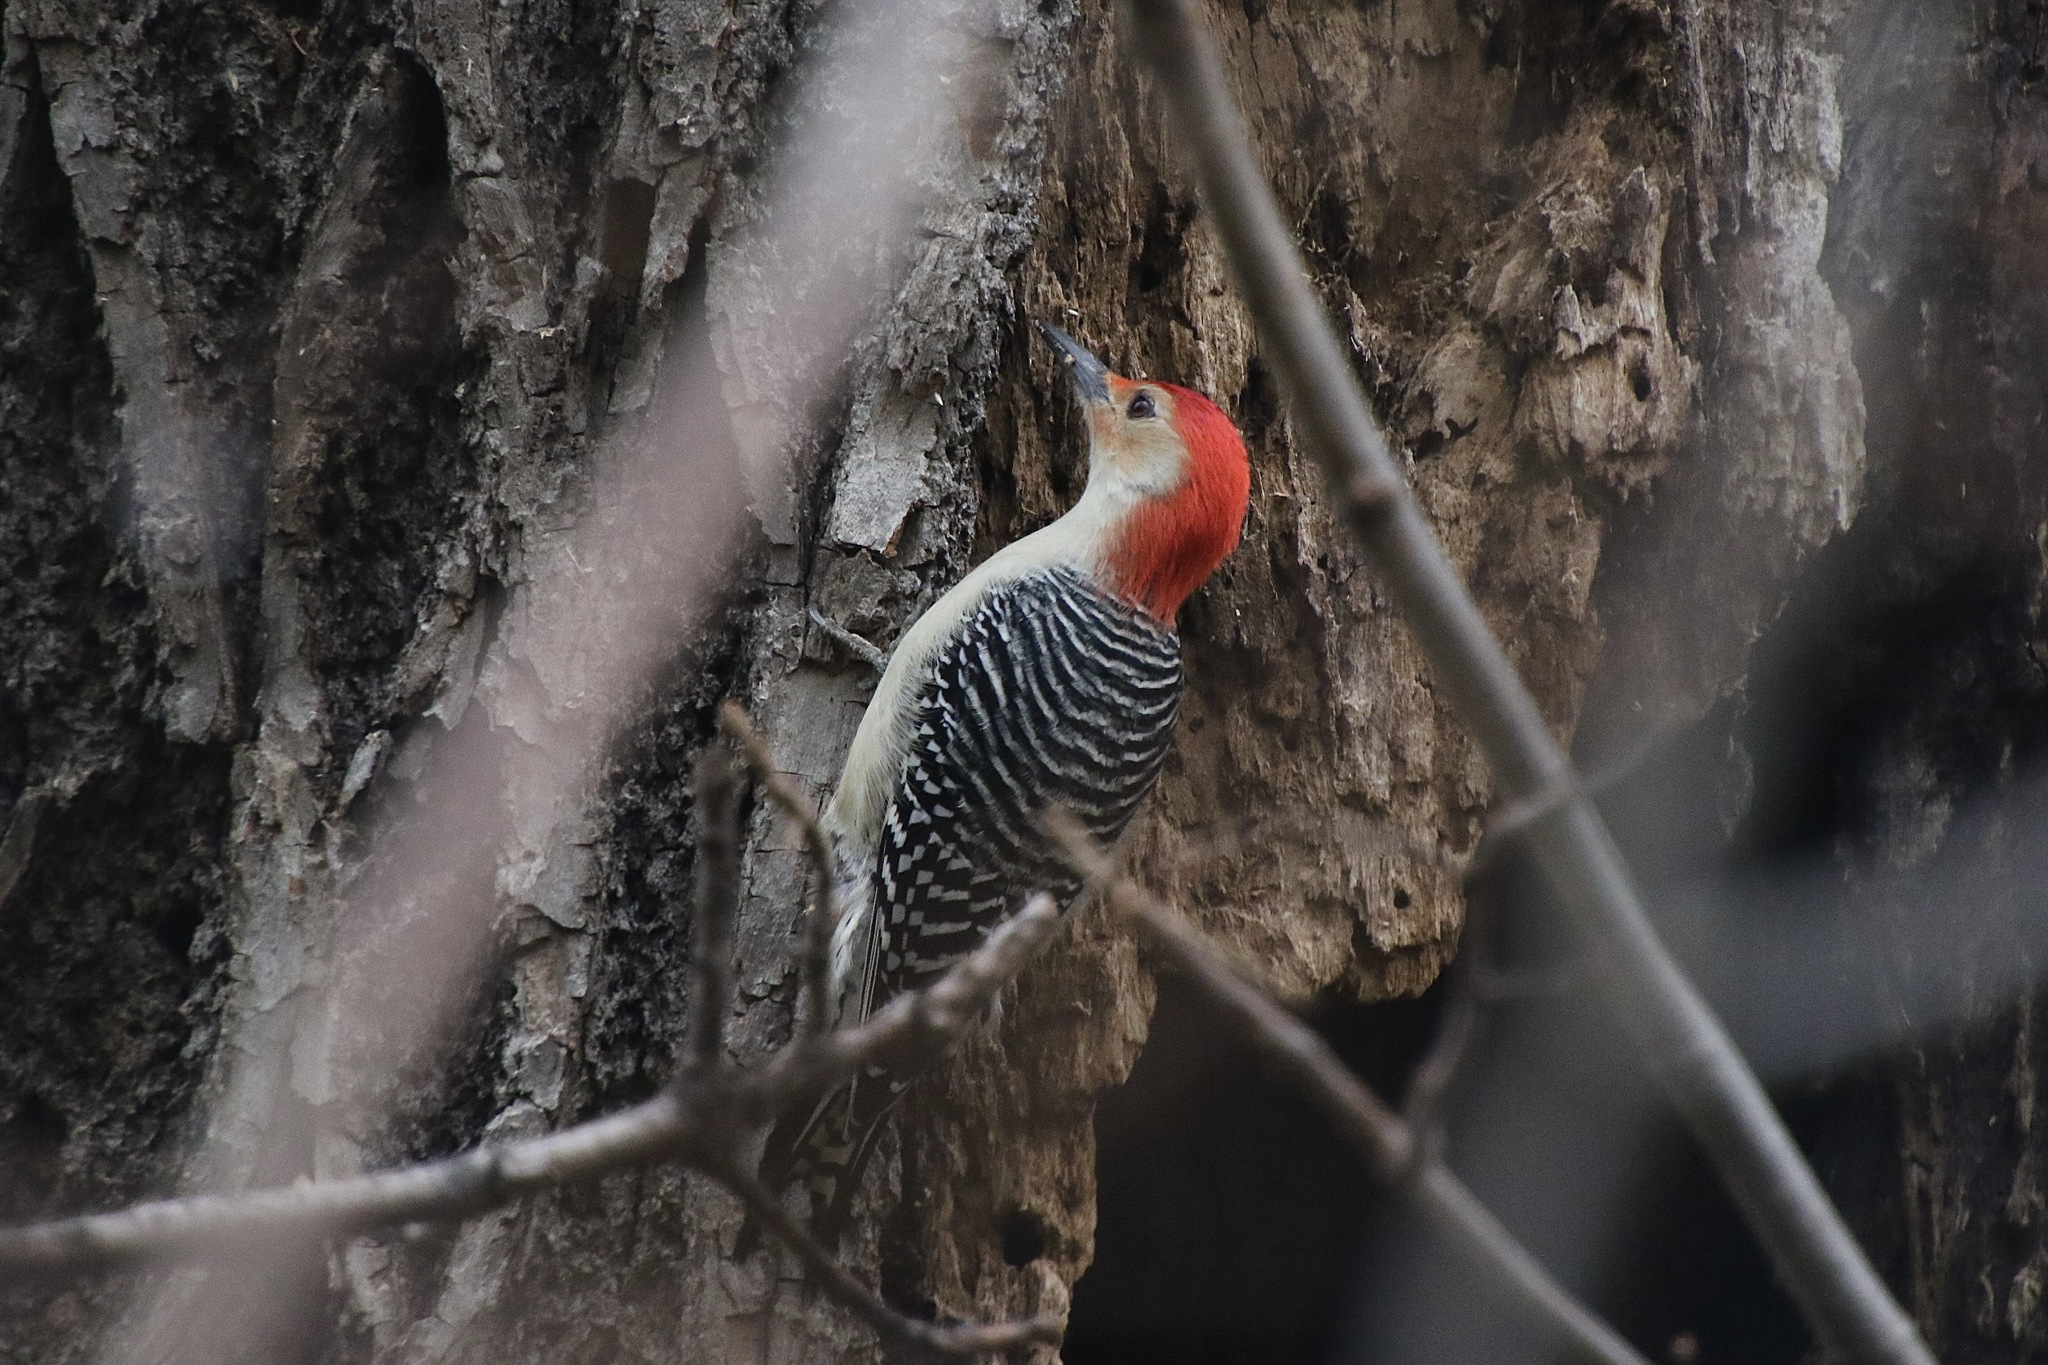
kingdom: Animalia
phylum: Chordata
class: Aves
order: Piciformes
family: Picidae
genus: Melanerpes
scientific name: Melanerpes carolinus
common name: Red-bellied woodpecker
